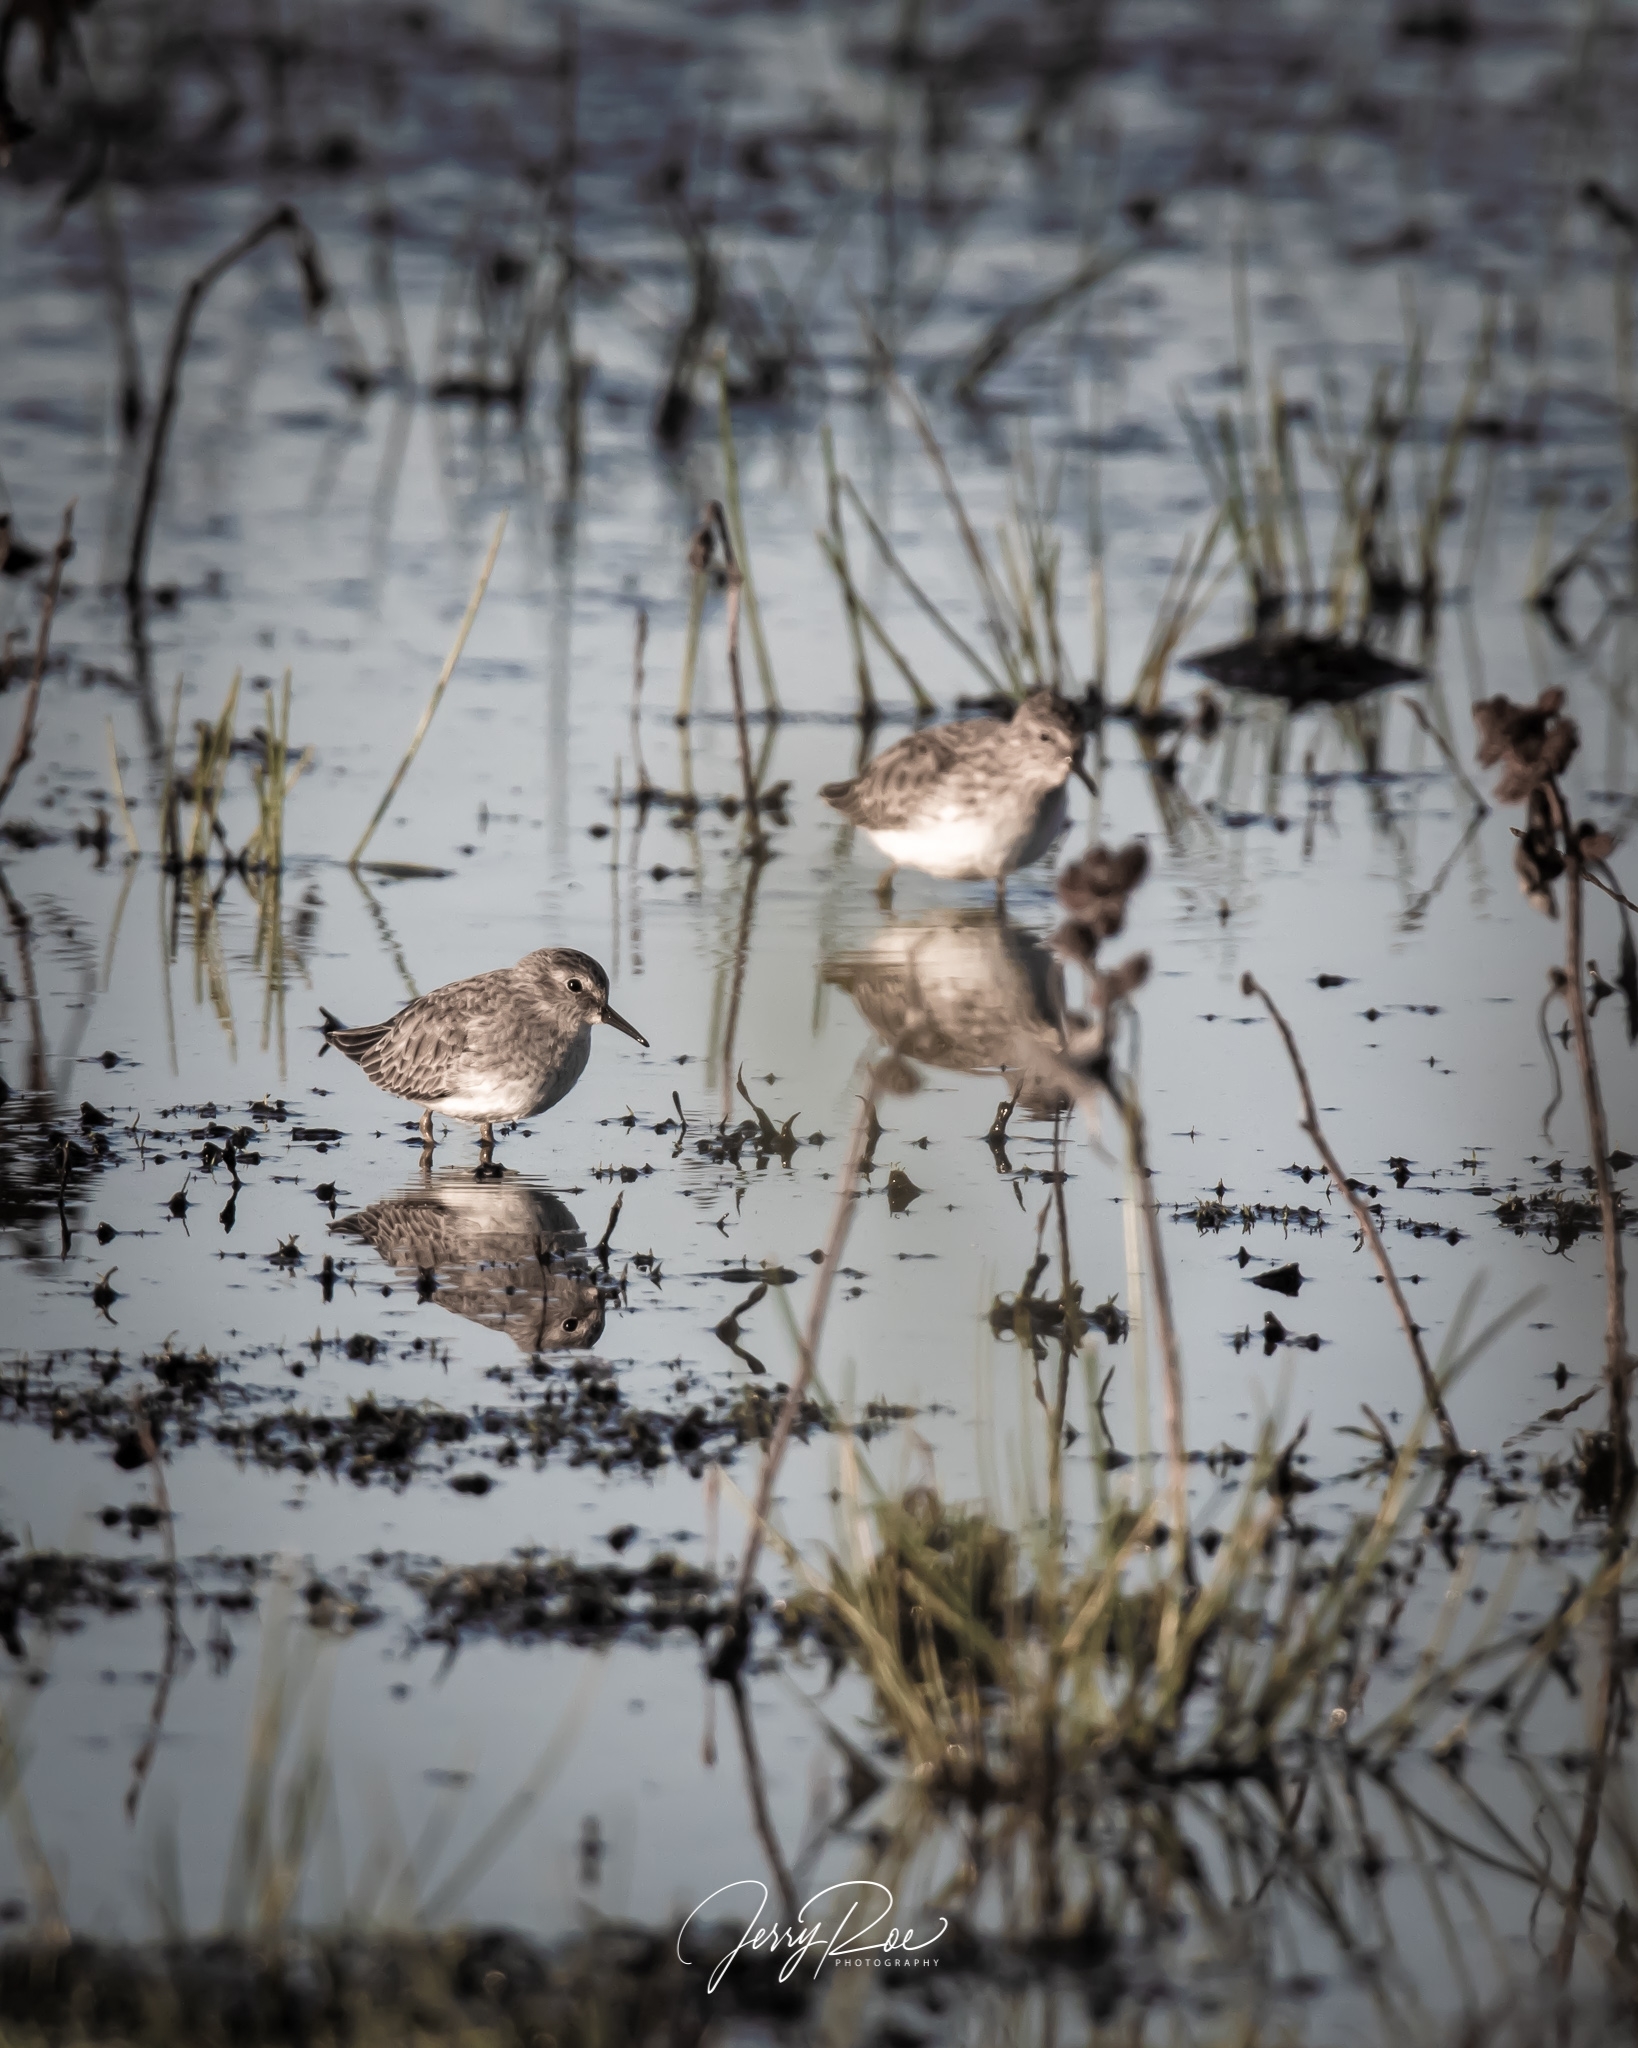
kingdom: Animalia
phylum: Chordata
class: Aves
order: Charadriiformes
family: Scolopacidae
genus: Calidris
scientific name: Calidris minutilla
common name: Least sandpiper
